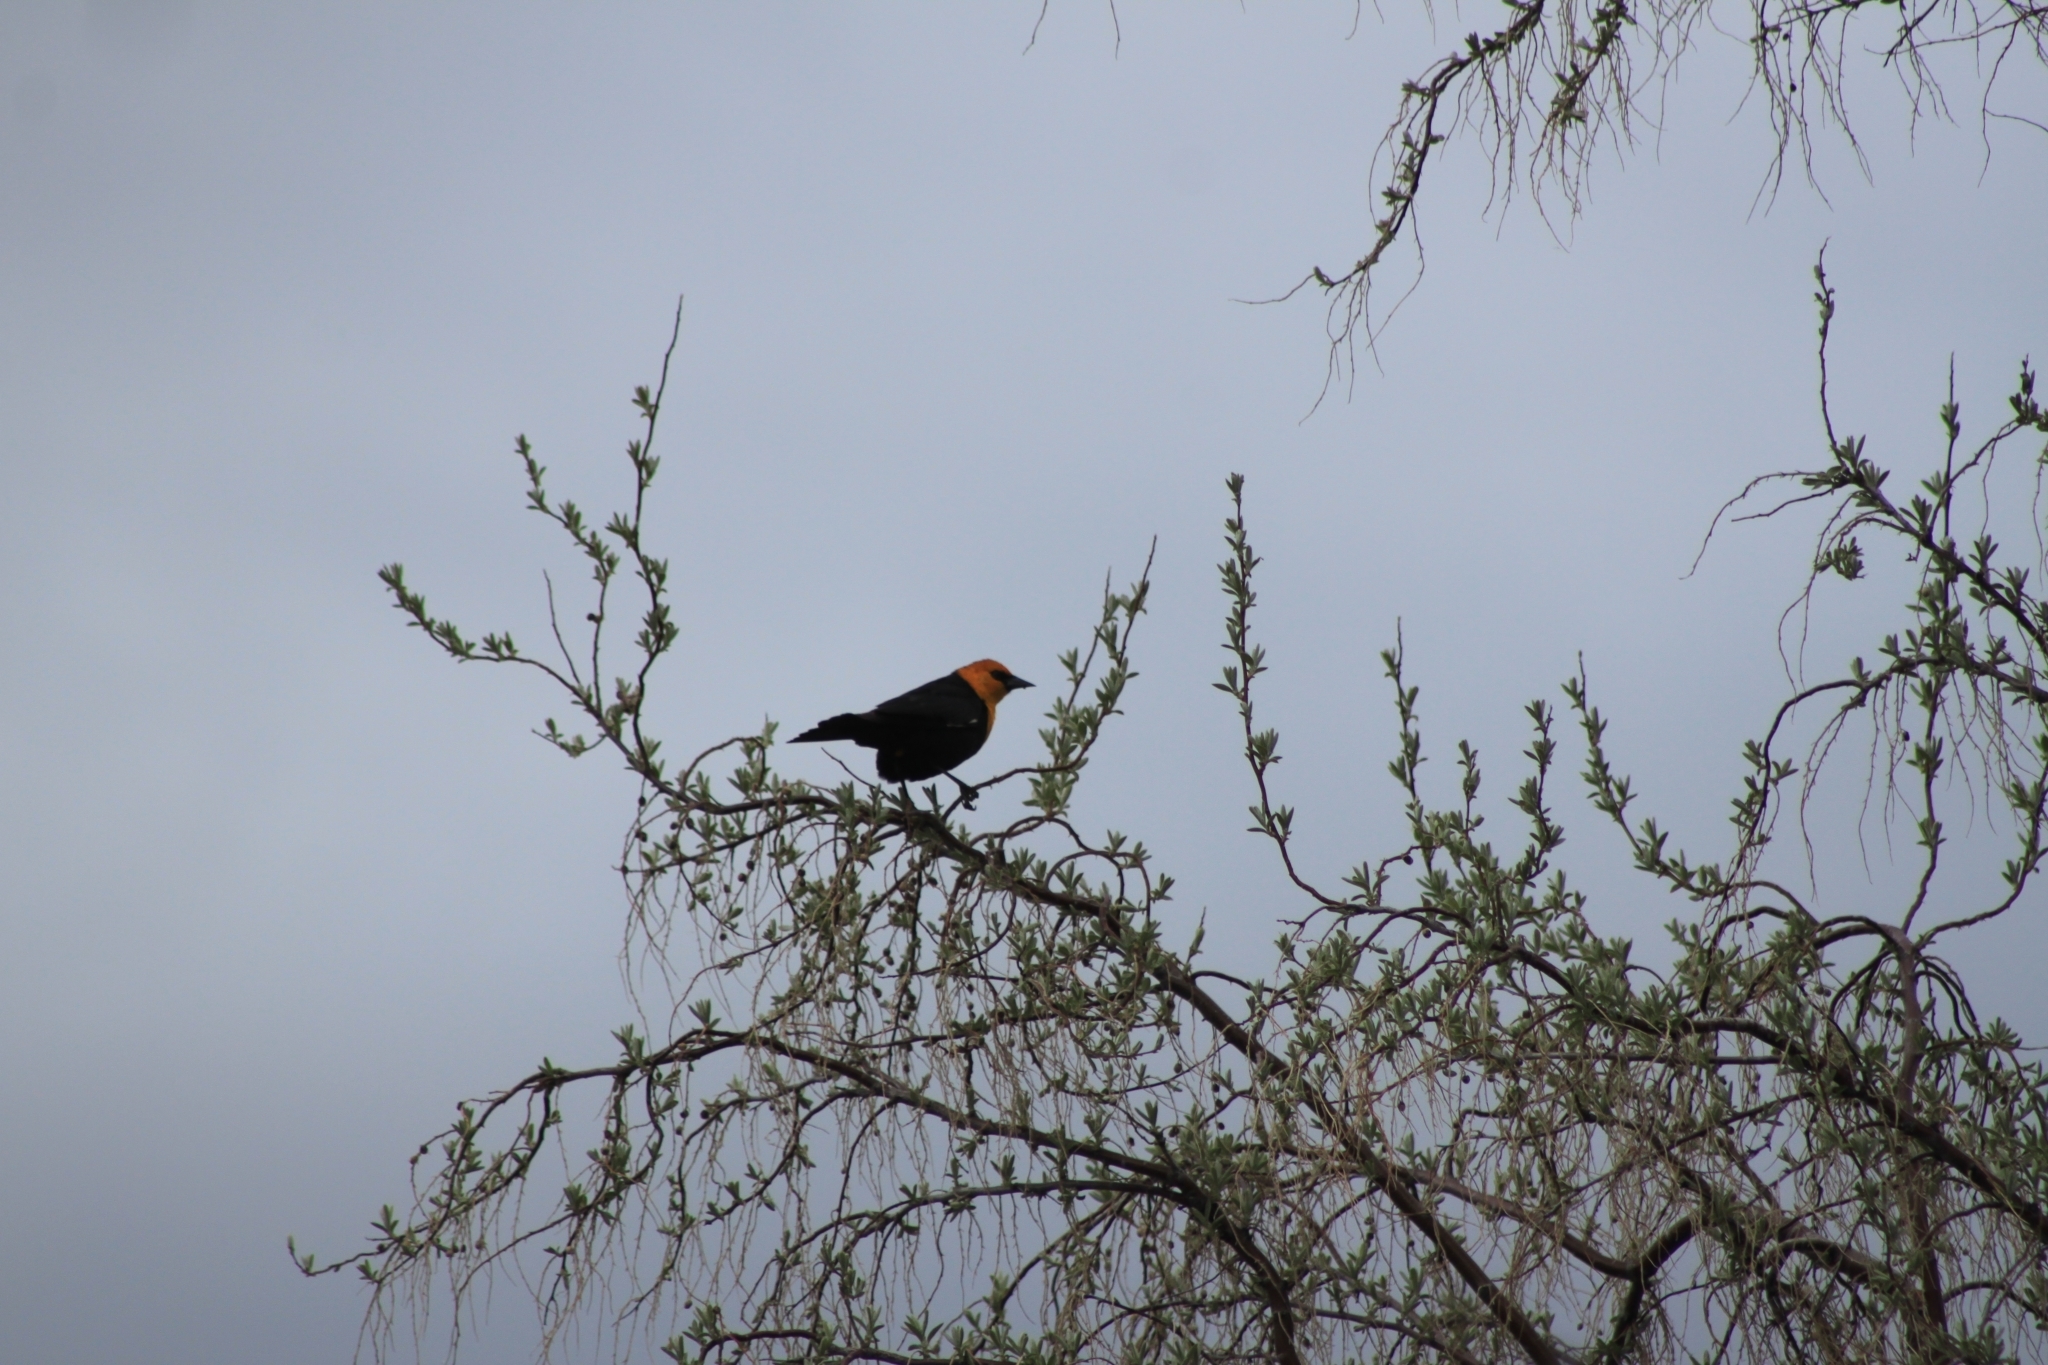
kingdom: Animalia
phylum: Chordata
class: Aves
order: Passeriformes
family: Icteridae
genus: Xanthocephalus
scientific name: Xanthocephalus xanthocephalus
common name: Yellow-headed blackbird
